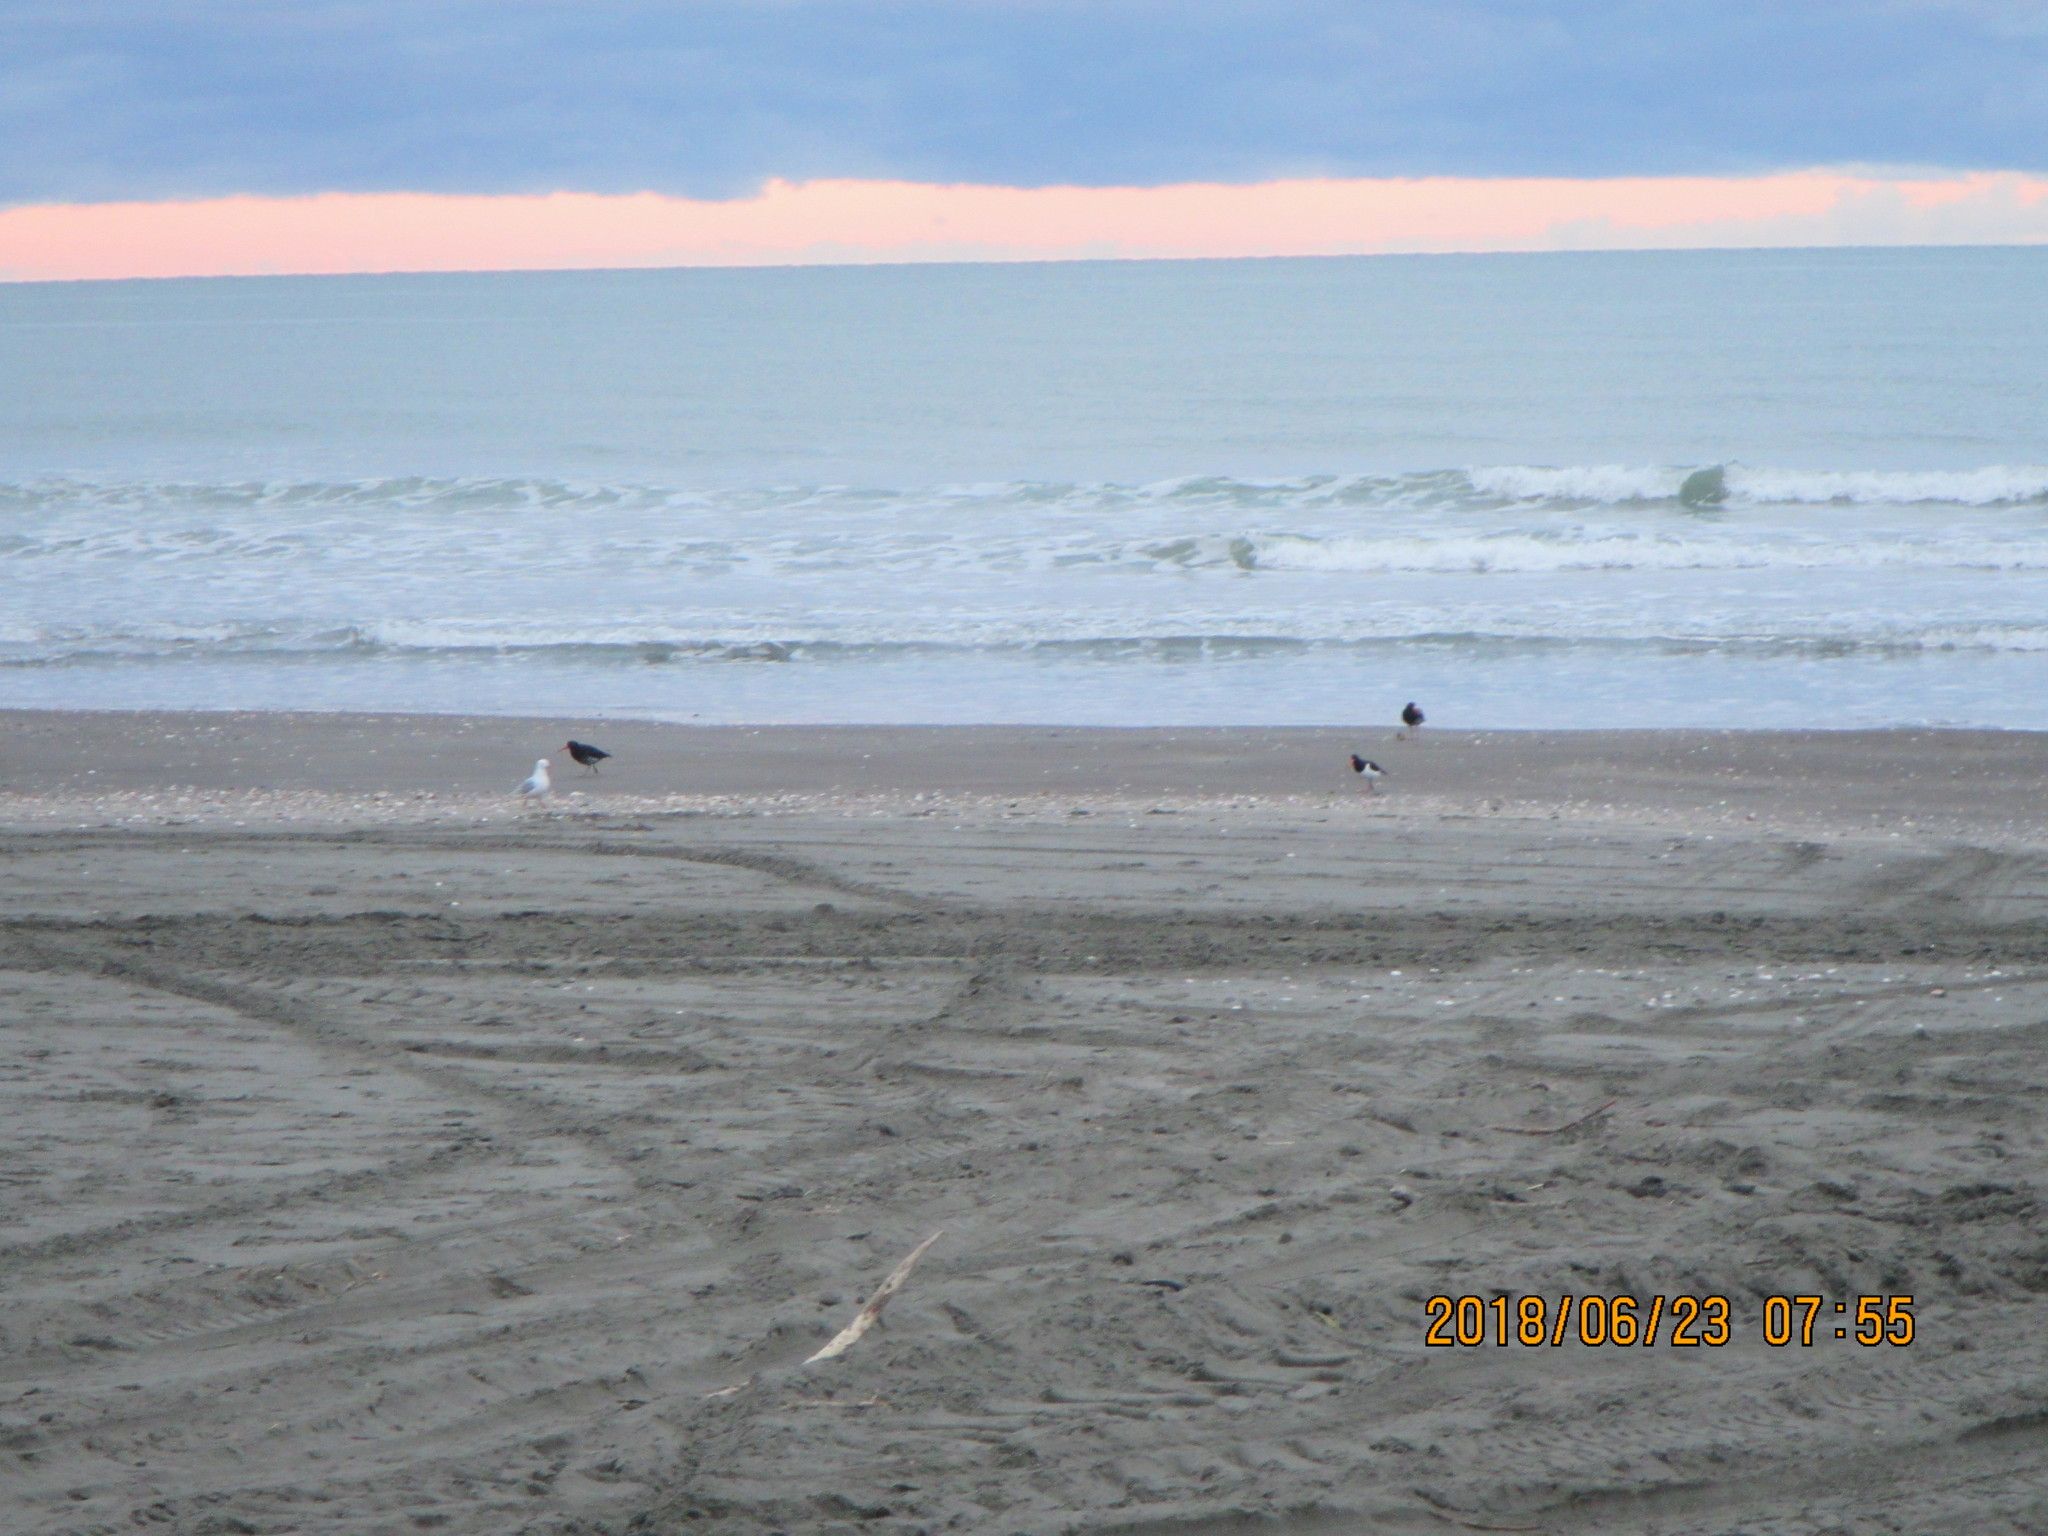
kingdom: Animalia
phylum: Chordata
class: Aves
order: Charadriiformes
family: Haematopodidae
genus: Haematopus
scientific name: Haematopus unicolor
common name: Variable oystercatcher
